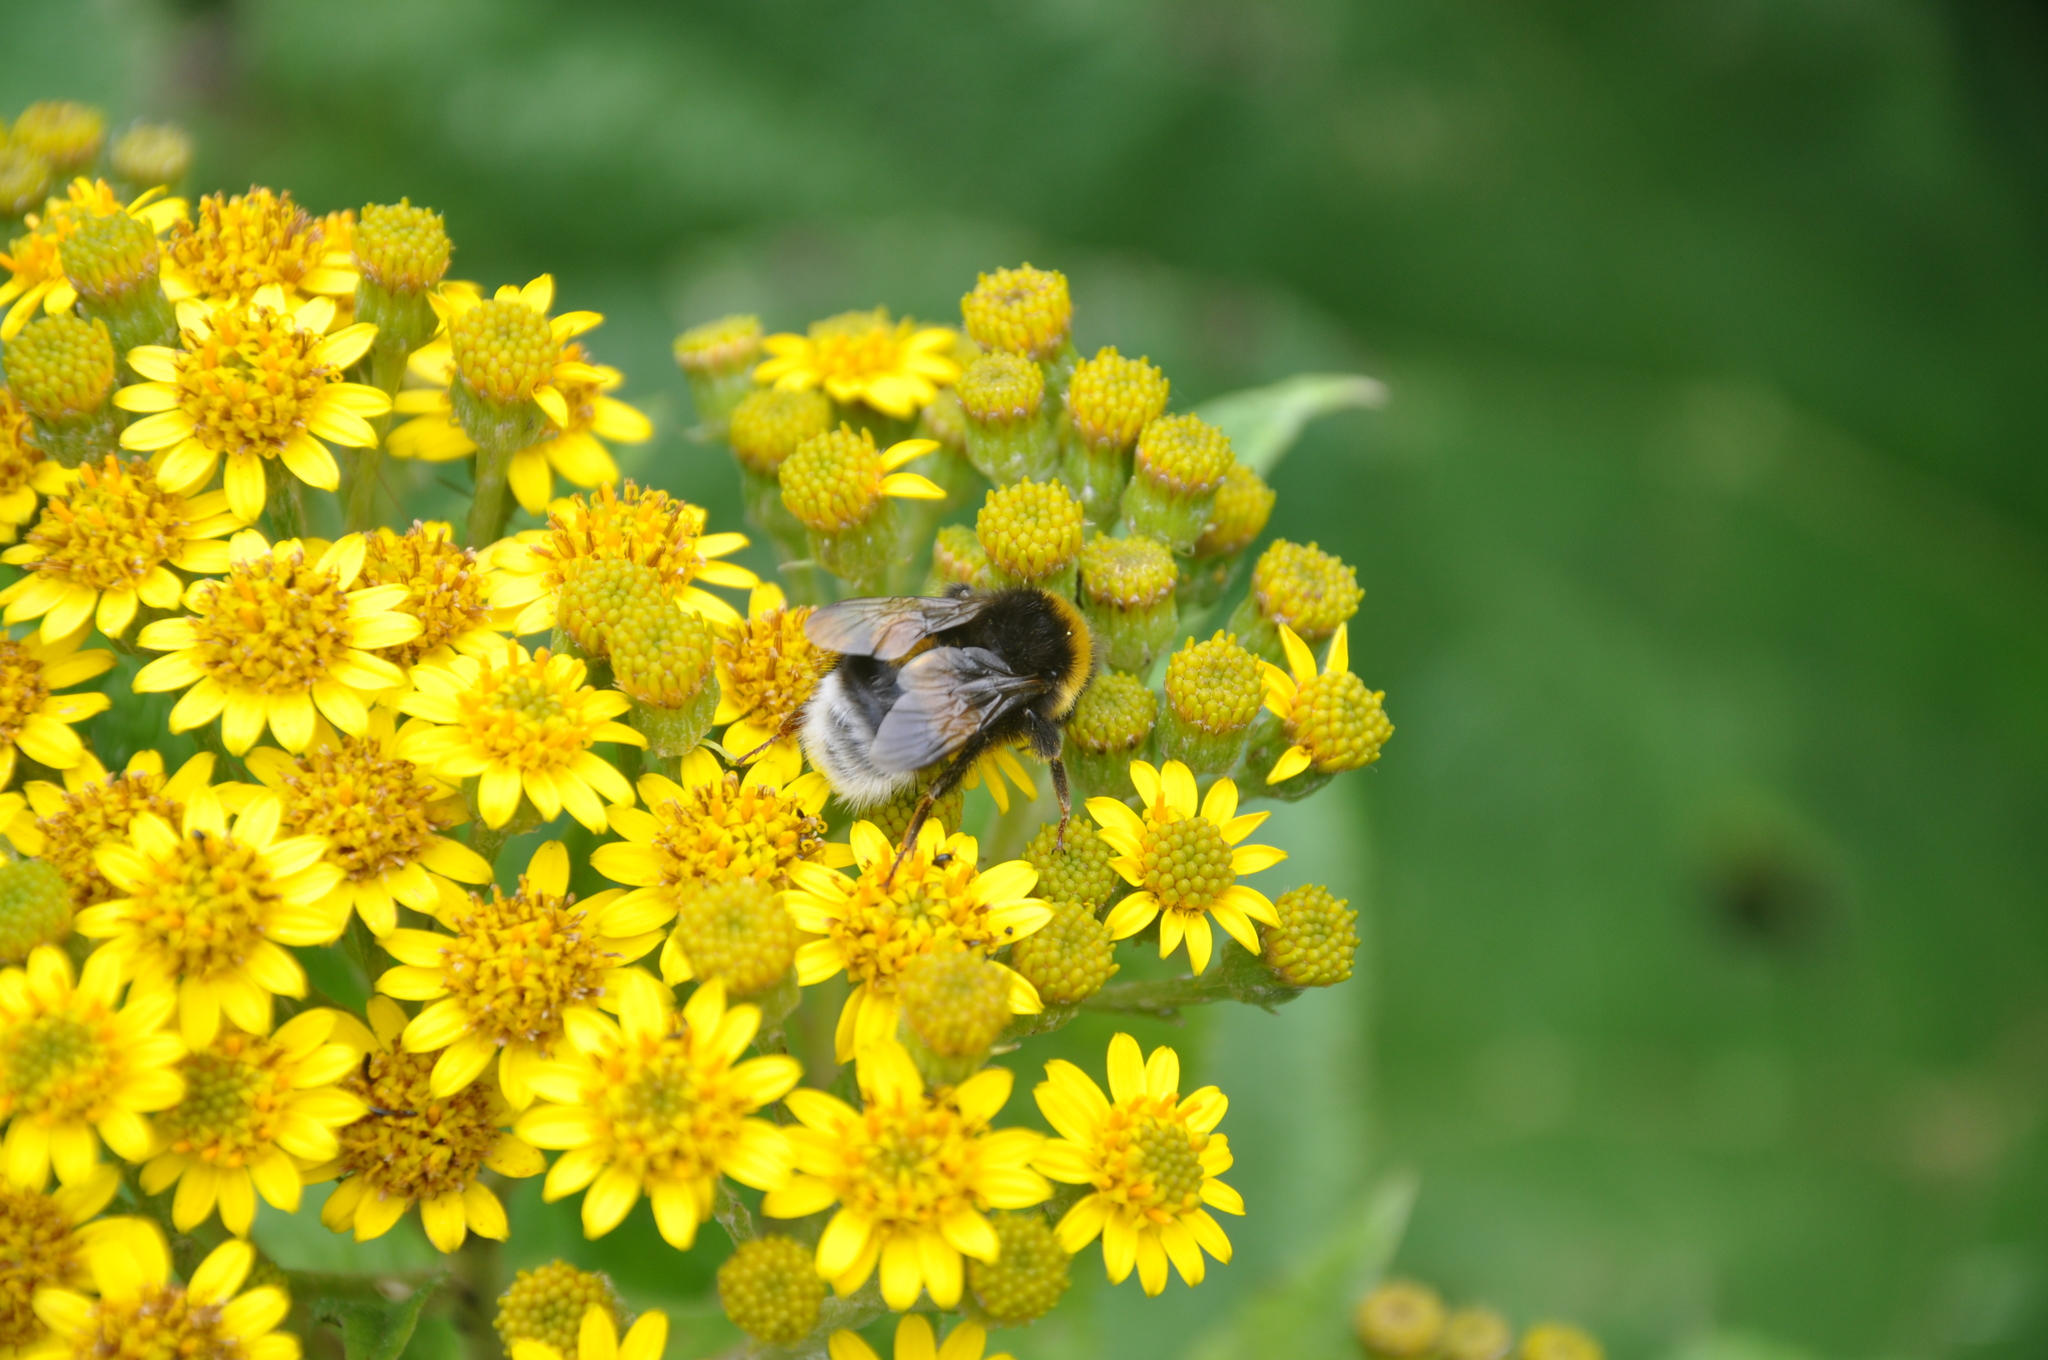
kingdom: Animalia
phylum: Arthropoda
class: Insecta
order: Hymenoptera
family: Apidae
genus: Bombus
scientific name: Bombus terrestris
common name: Buff-tailed bumblebee
